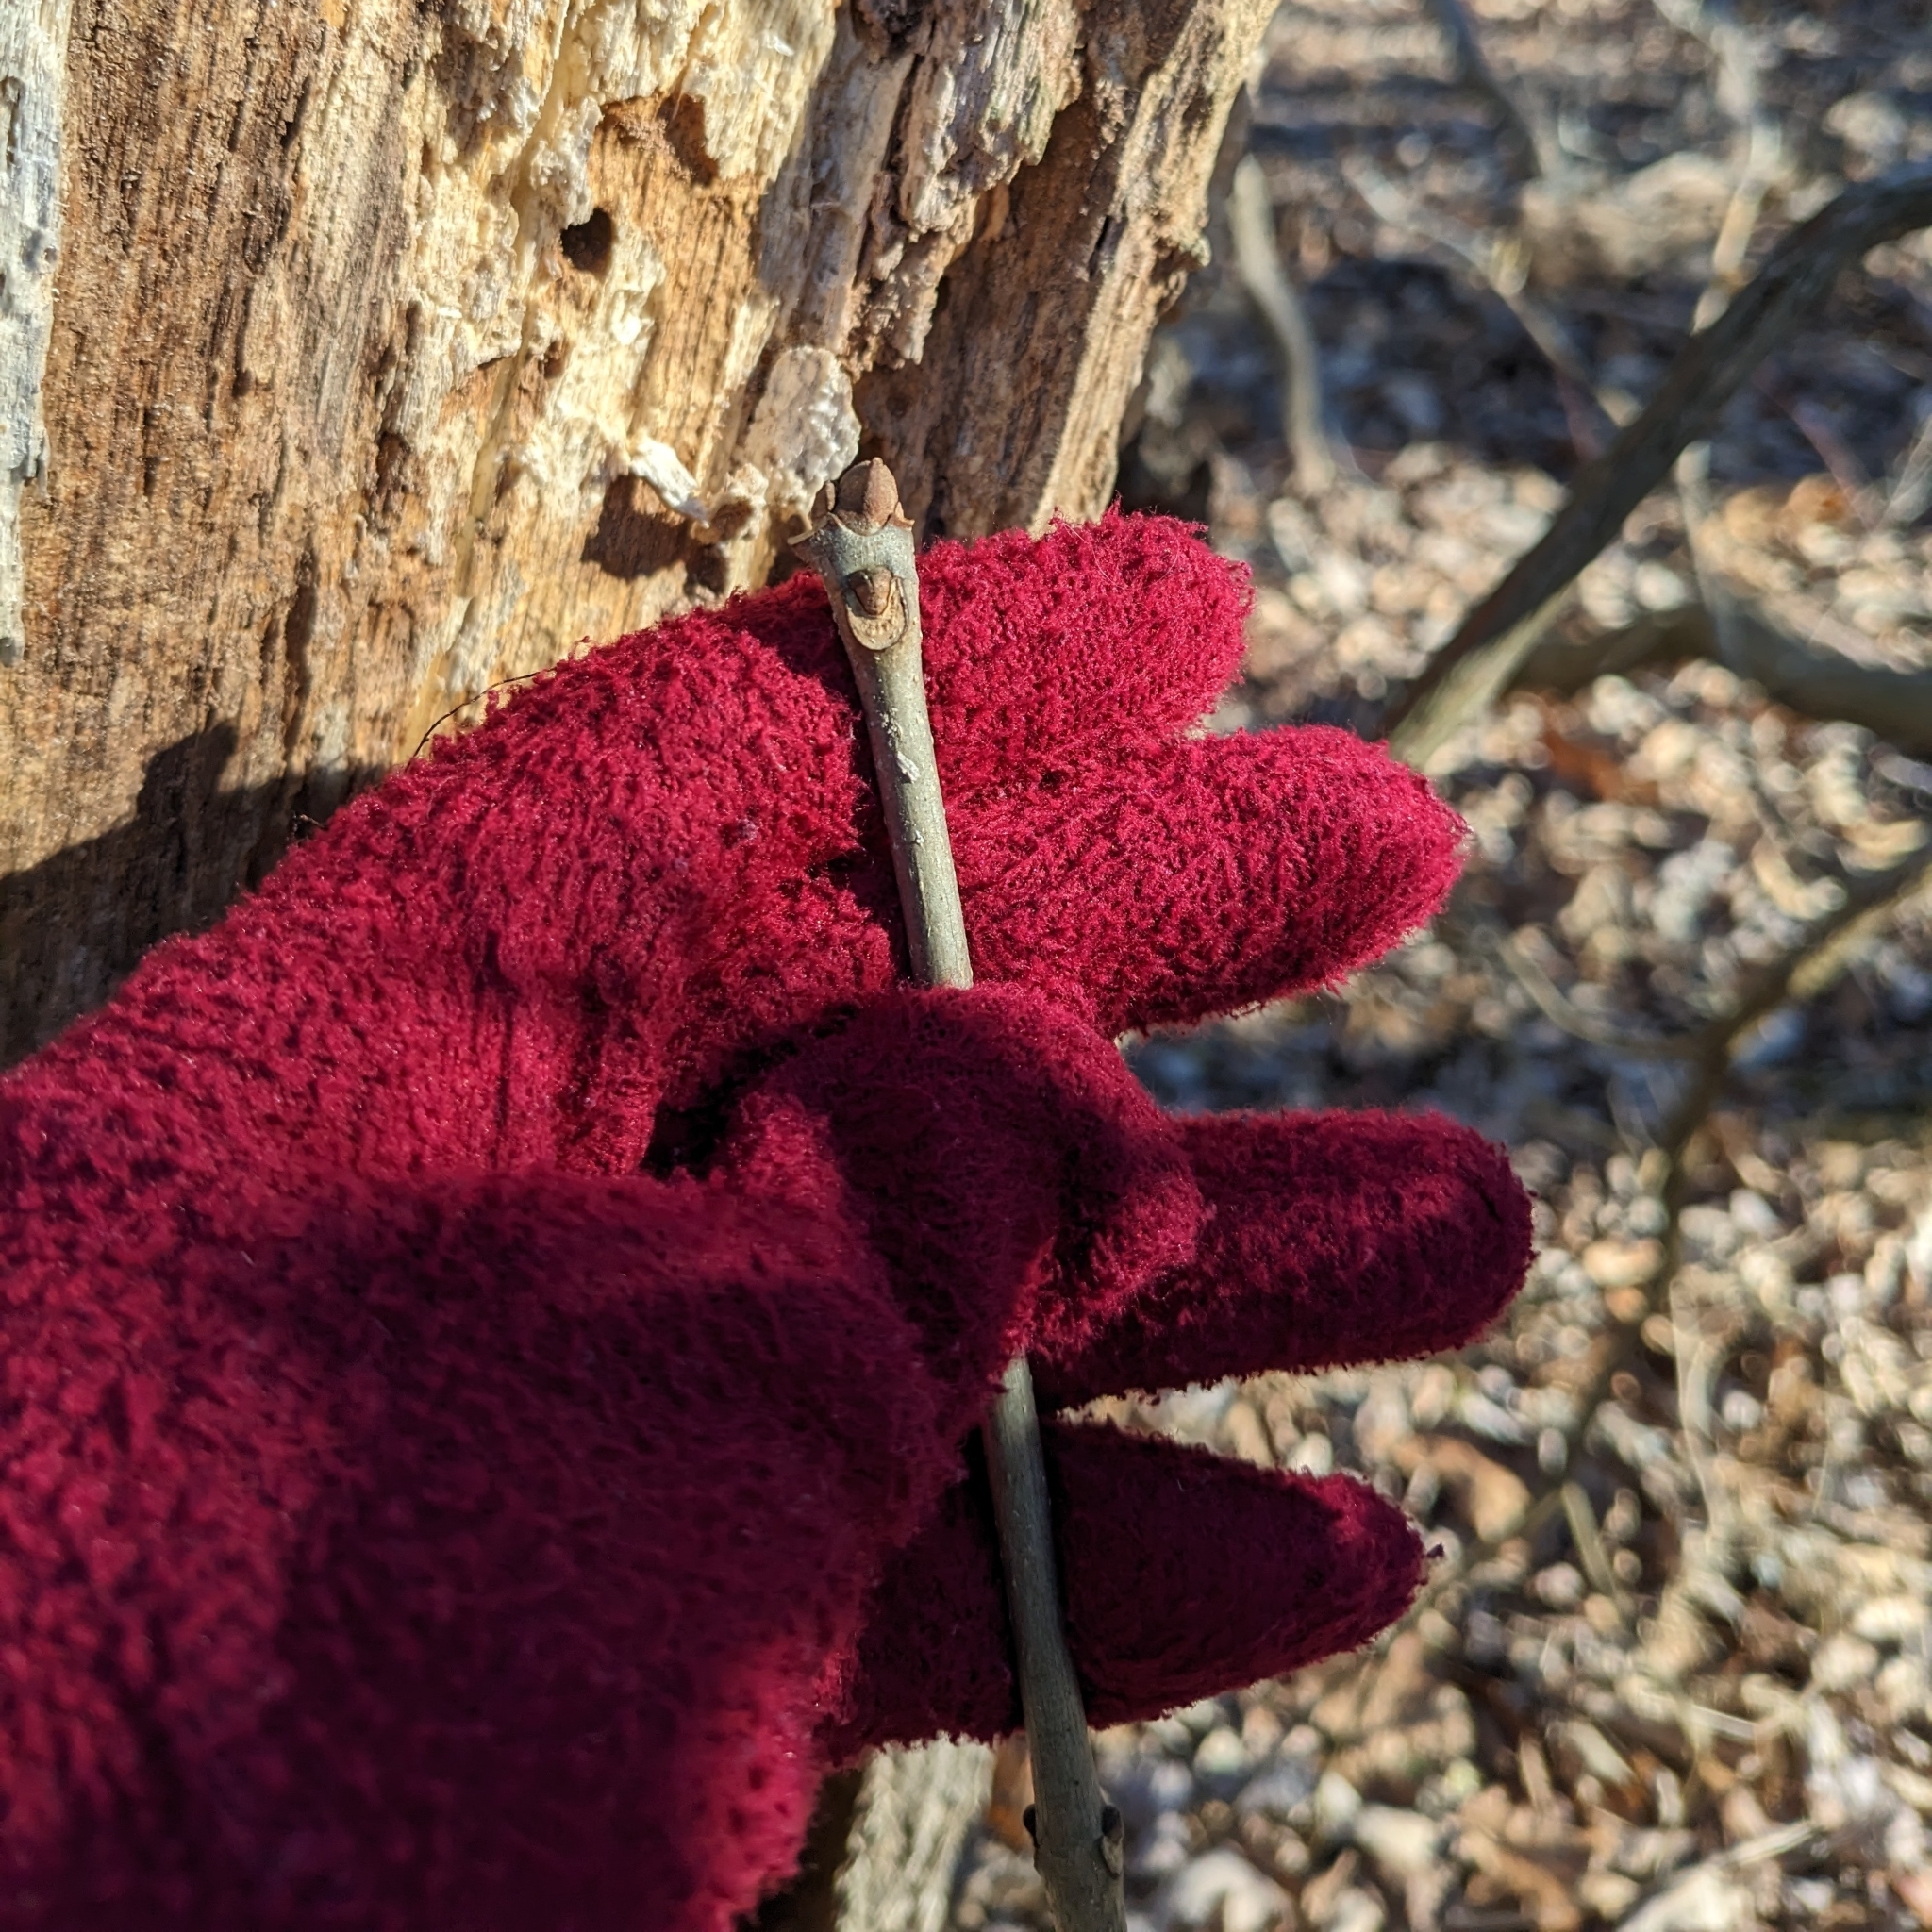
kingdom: Plantae
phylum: Tracheophyta
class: Magnoliopsida
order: Lamiales
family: Oleaceae
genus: Fraxinus
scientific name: Fraxinus americana
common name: White ash
